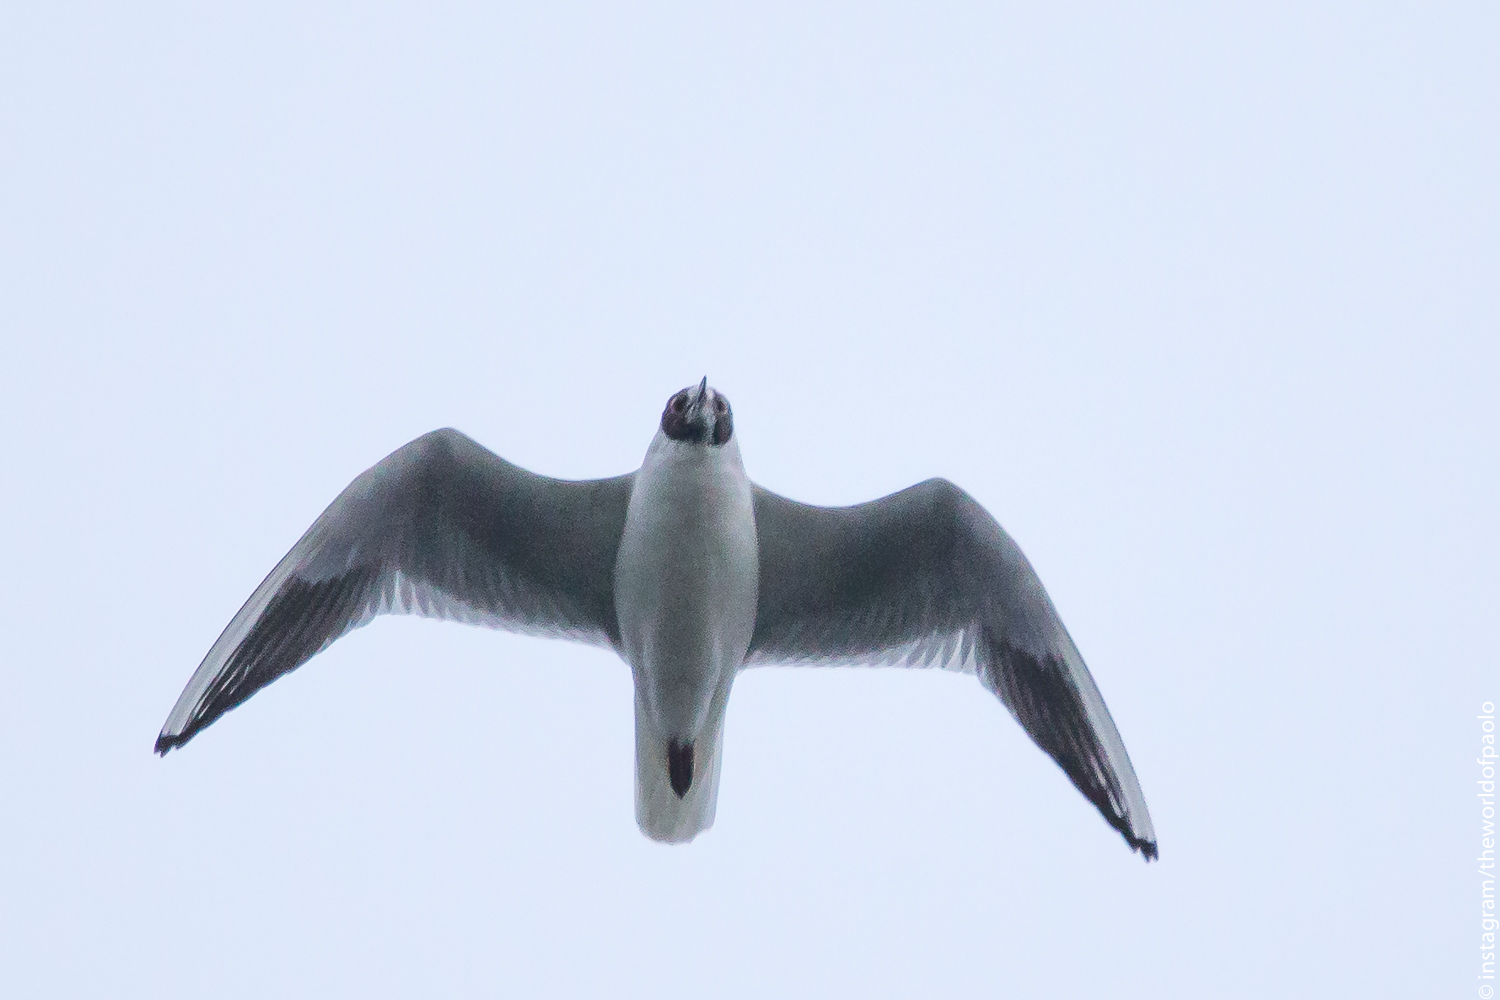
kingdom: Animalia
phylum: Chordata
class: Aves
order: Charadriiformes
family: Laridae
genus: Chroicocephalus
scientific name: Chroicocephalus ridibundus
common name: Black-headed gull
